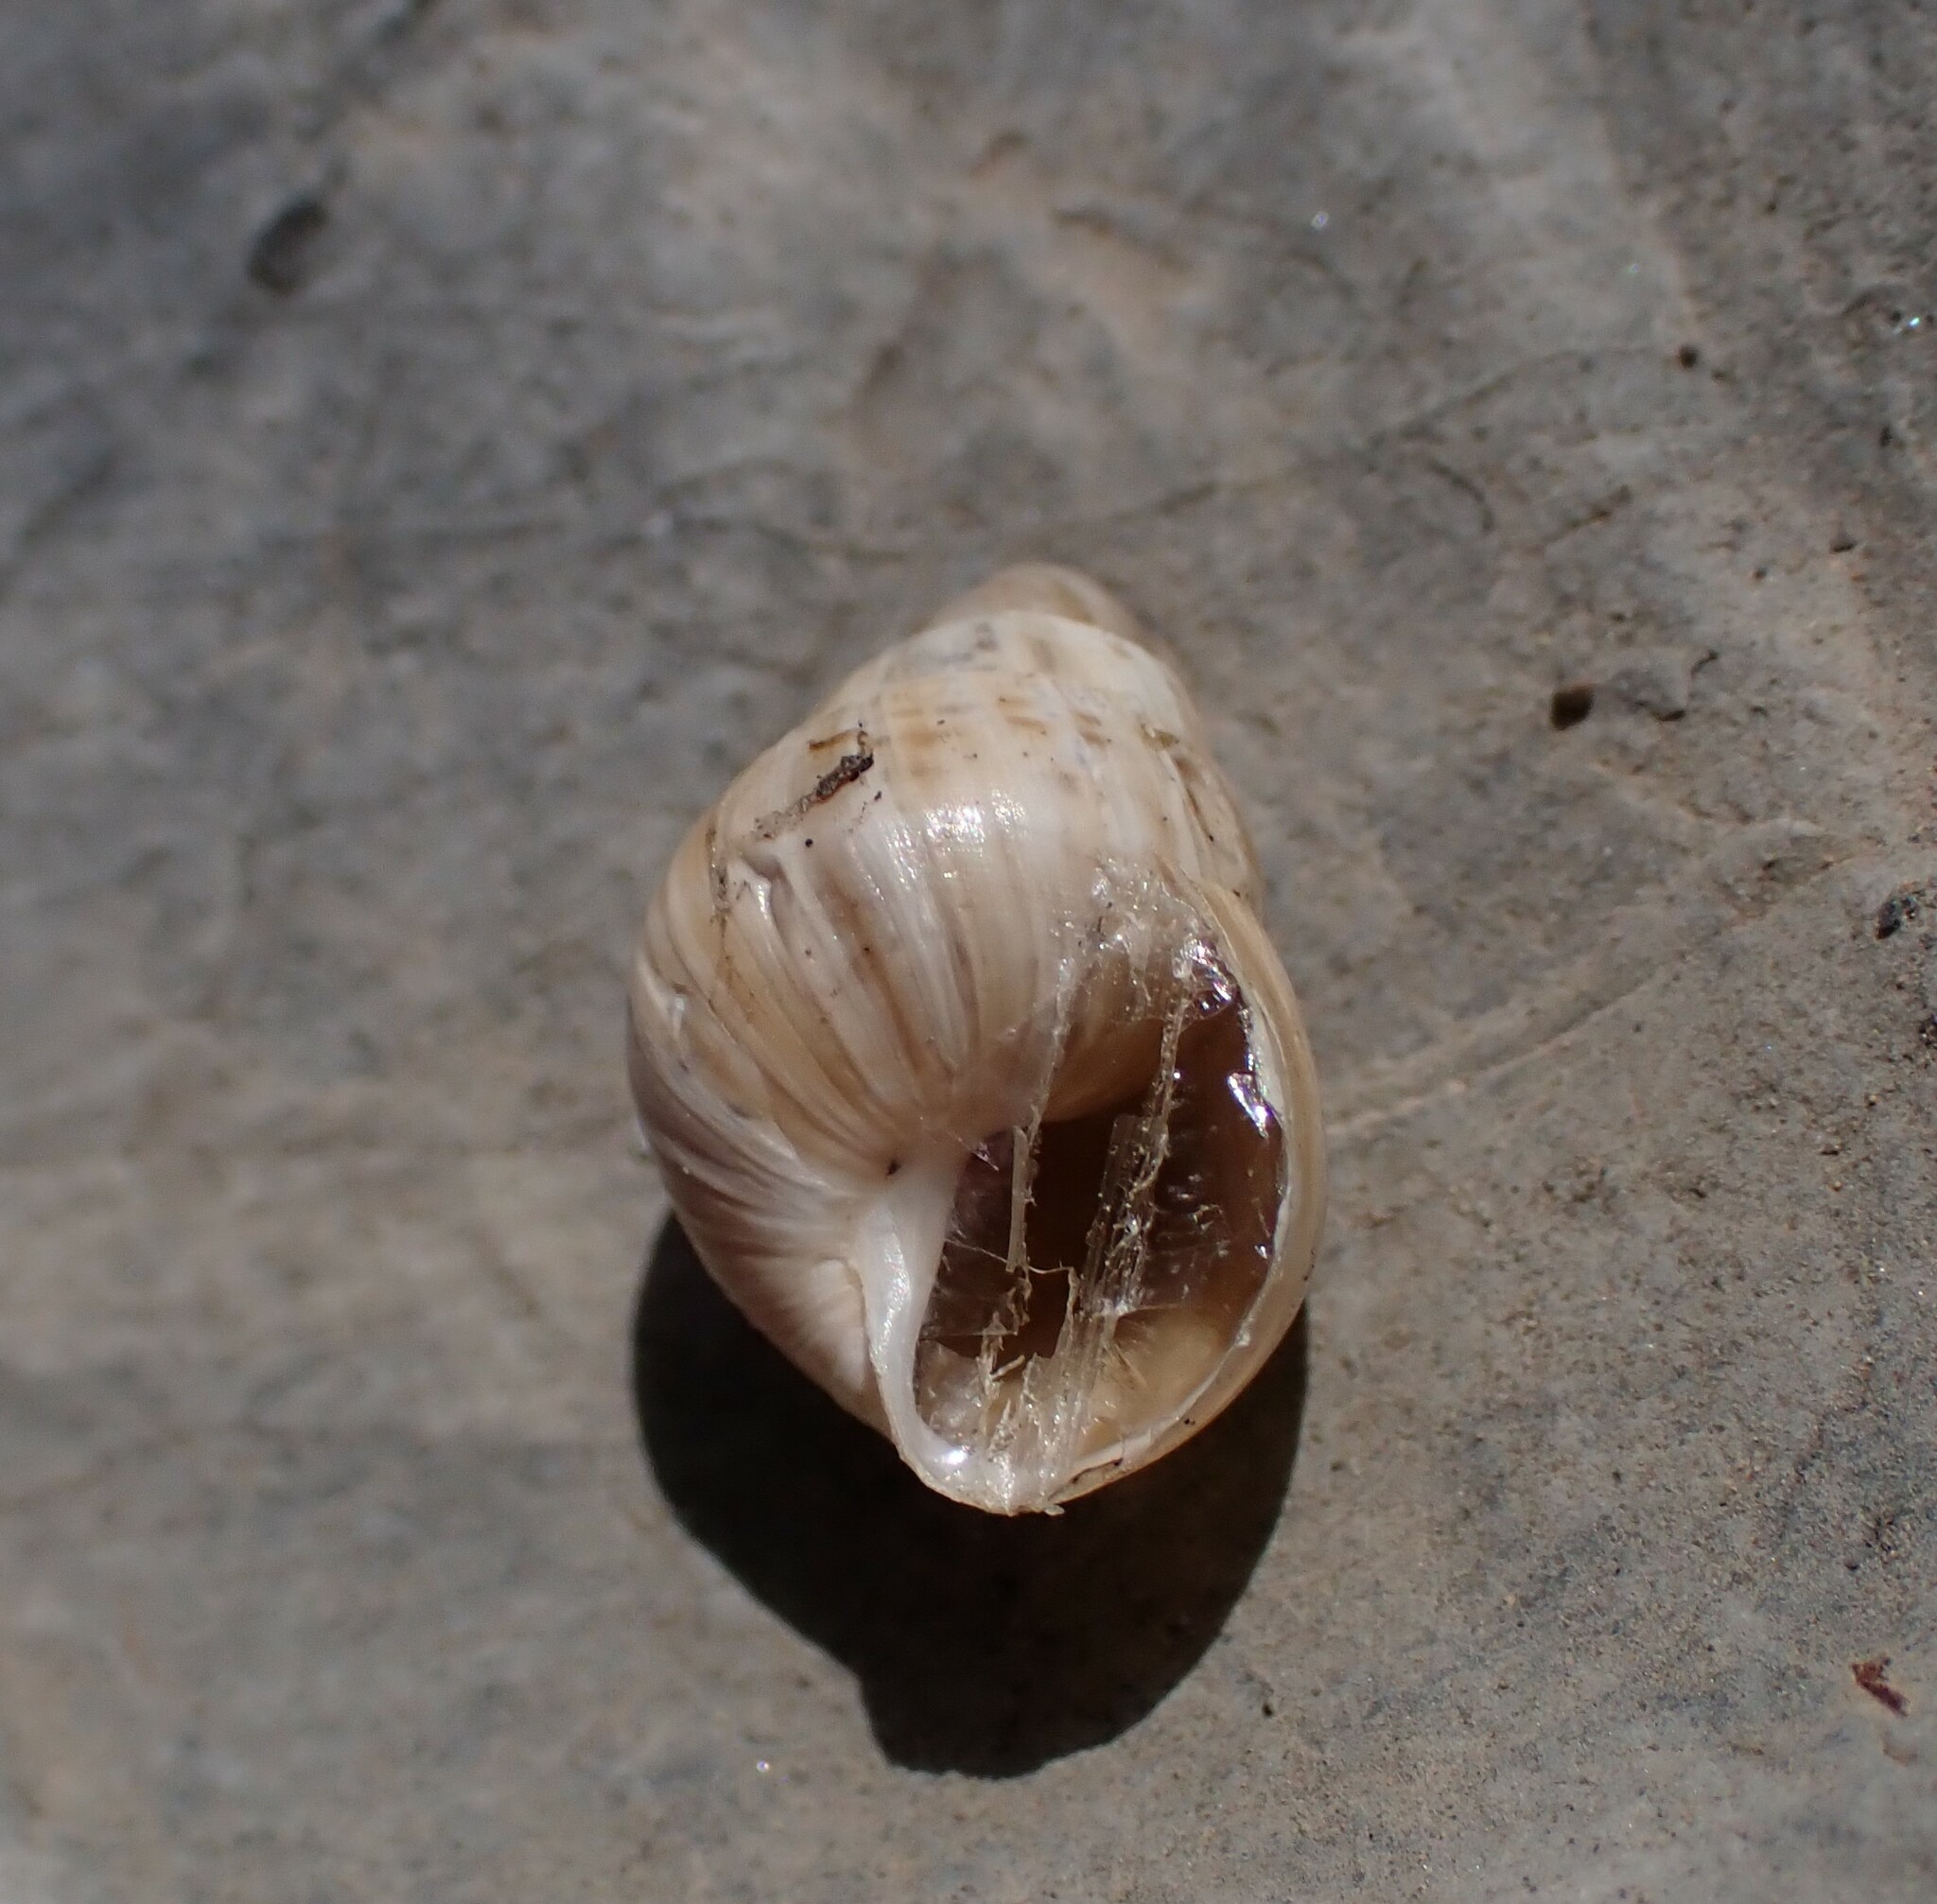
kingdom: Animalia
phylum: Mollusca
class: Gastropoda
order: Stylommatophora
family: Enidae
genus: Zebrina
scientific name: Zebrina detrita
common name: Large bulin
